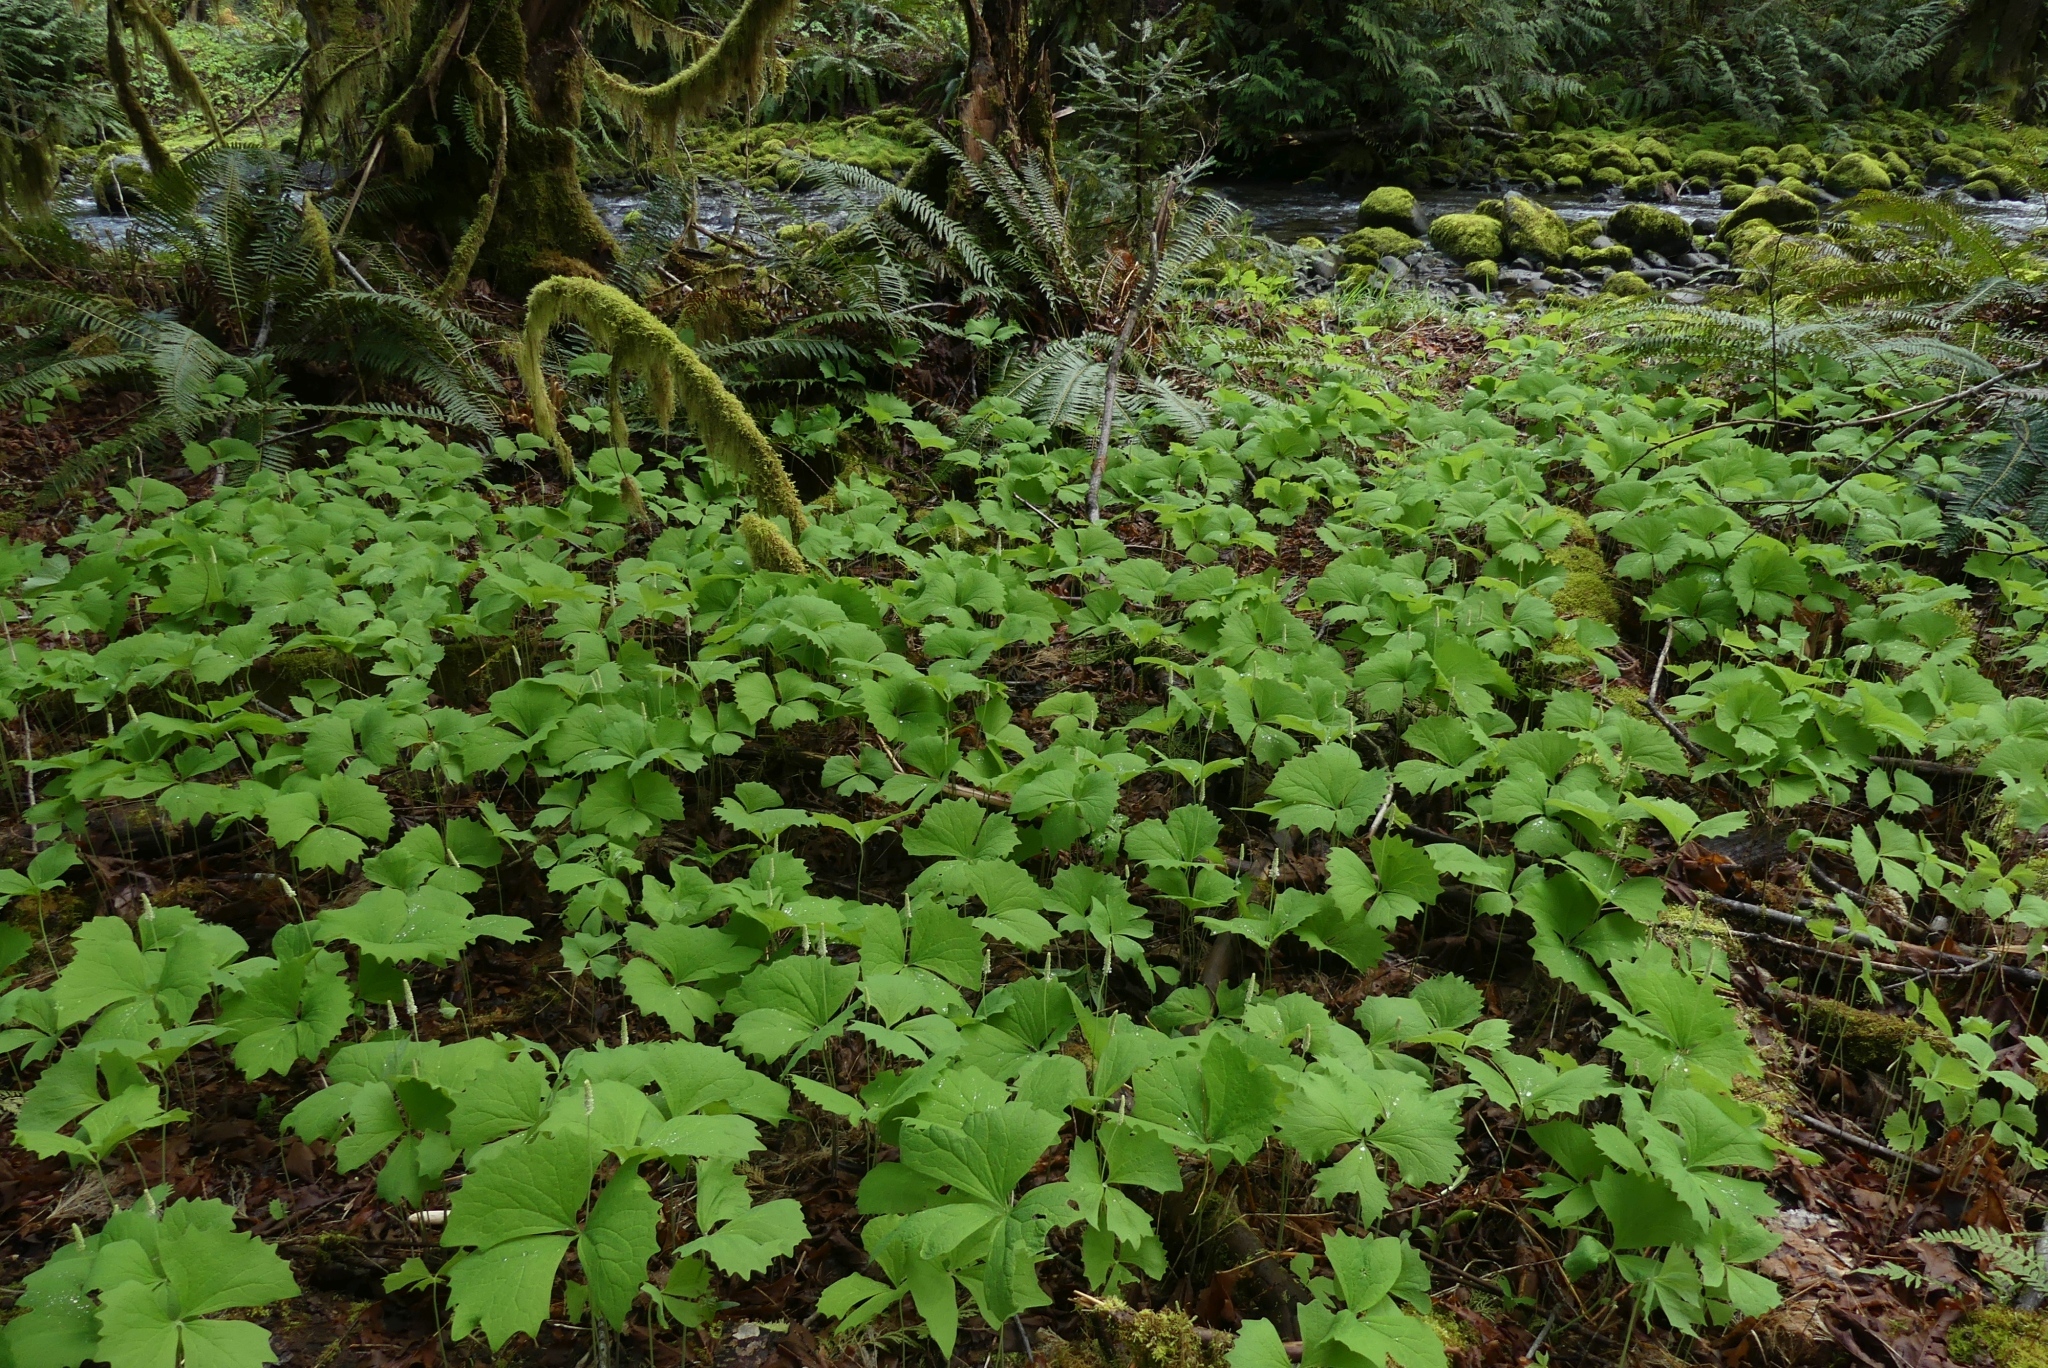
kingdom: Plantae
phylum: Tracheophyta
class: Magnoliopsida
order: Ranunculales
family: Berberidaceae
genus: Achlys
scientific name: Achlys triphylla
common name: Vanilla-leaf
